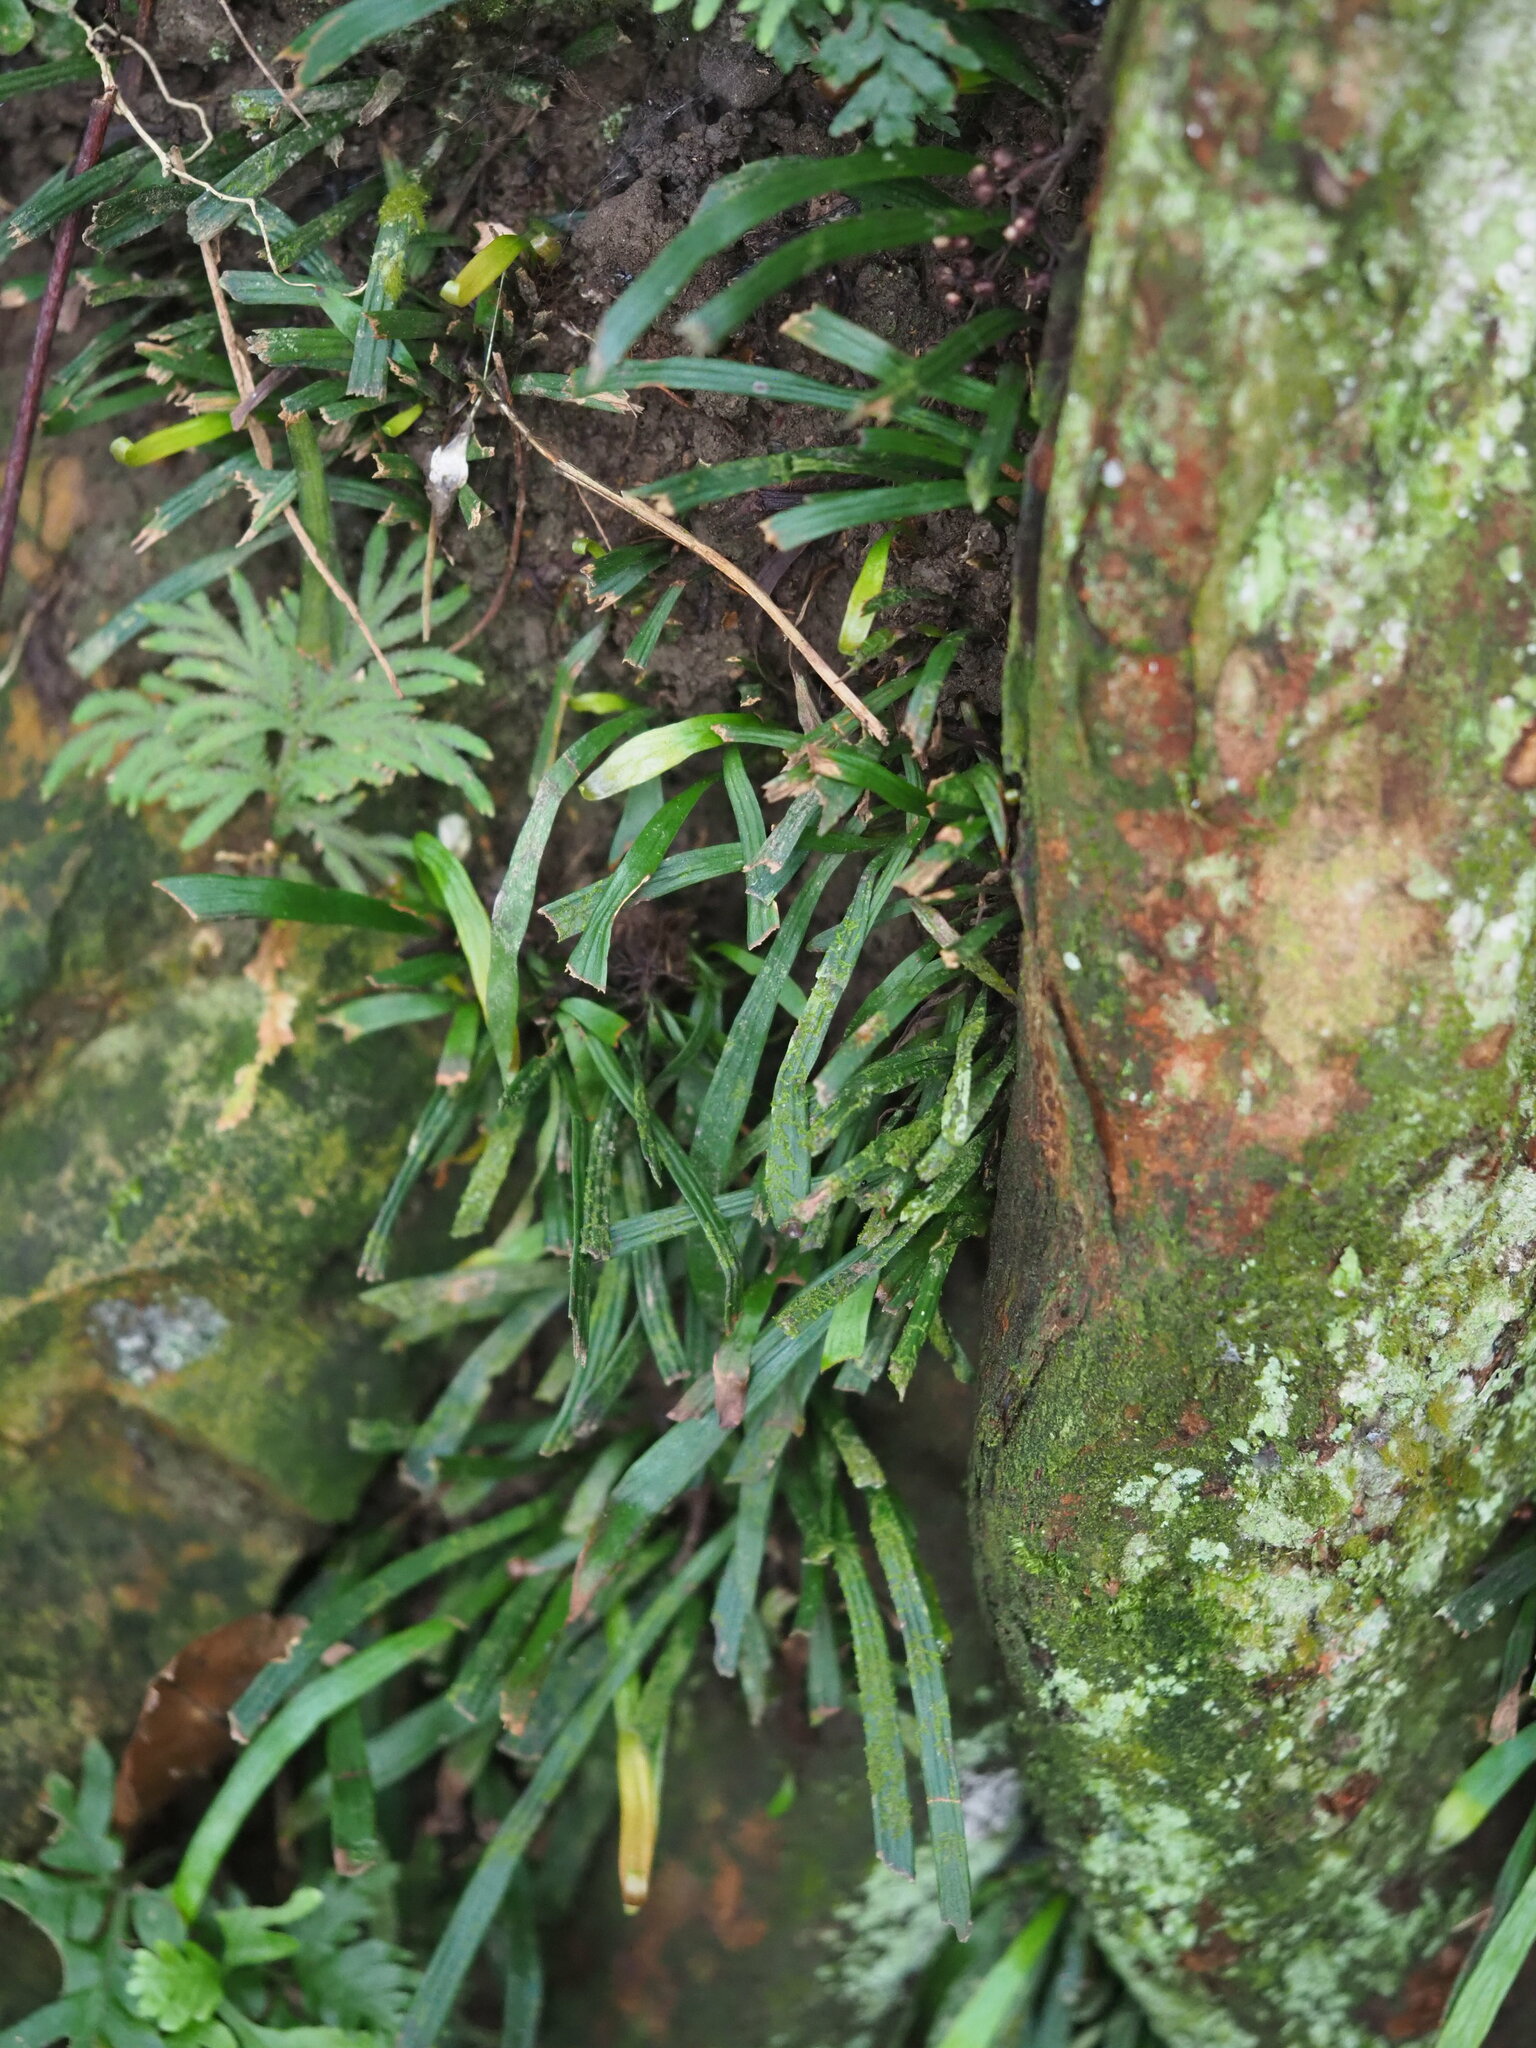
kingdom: Plantae
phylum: Tracheophyta
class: Polypodiopsida
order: Polypodiales
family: Pteridaceae
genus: Haplopteris
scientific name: Haplopteris anguste-elongata
